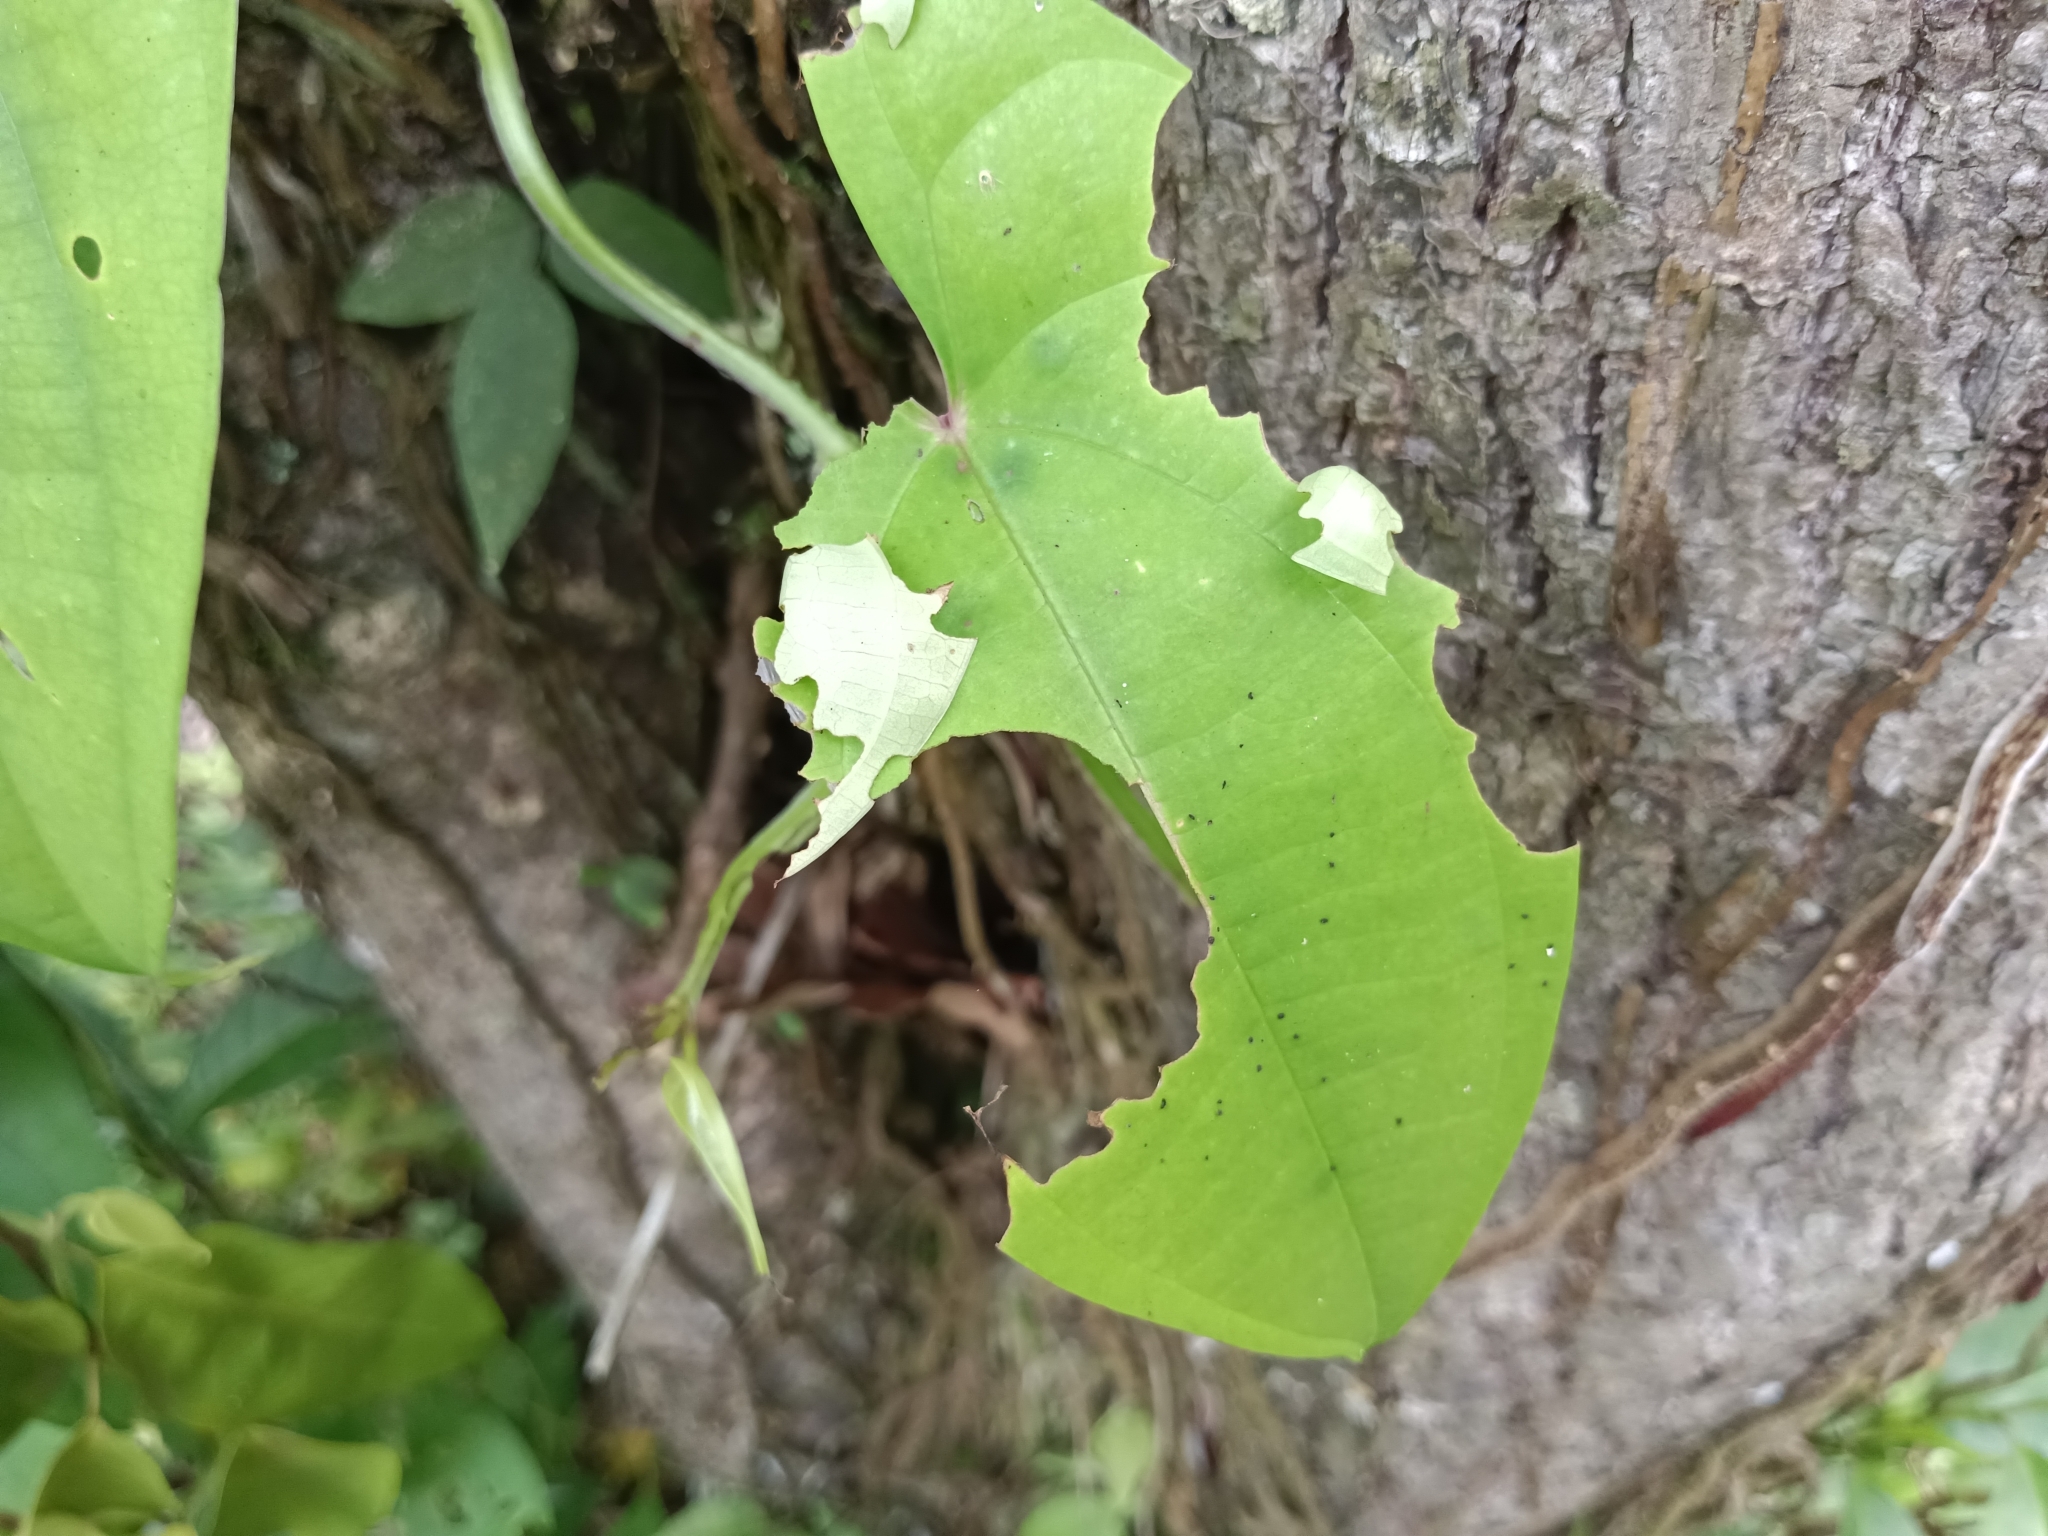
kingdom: Animalia
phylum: Arthropoda
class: Insecta
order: Lepidoptera
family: Hesperiidae
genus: Tagiades
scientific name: Tagiades litigiosa
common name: Water snow flat
